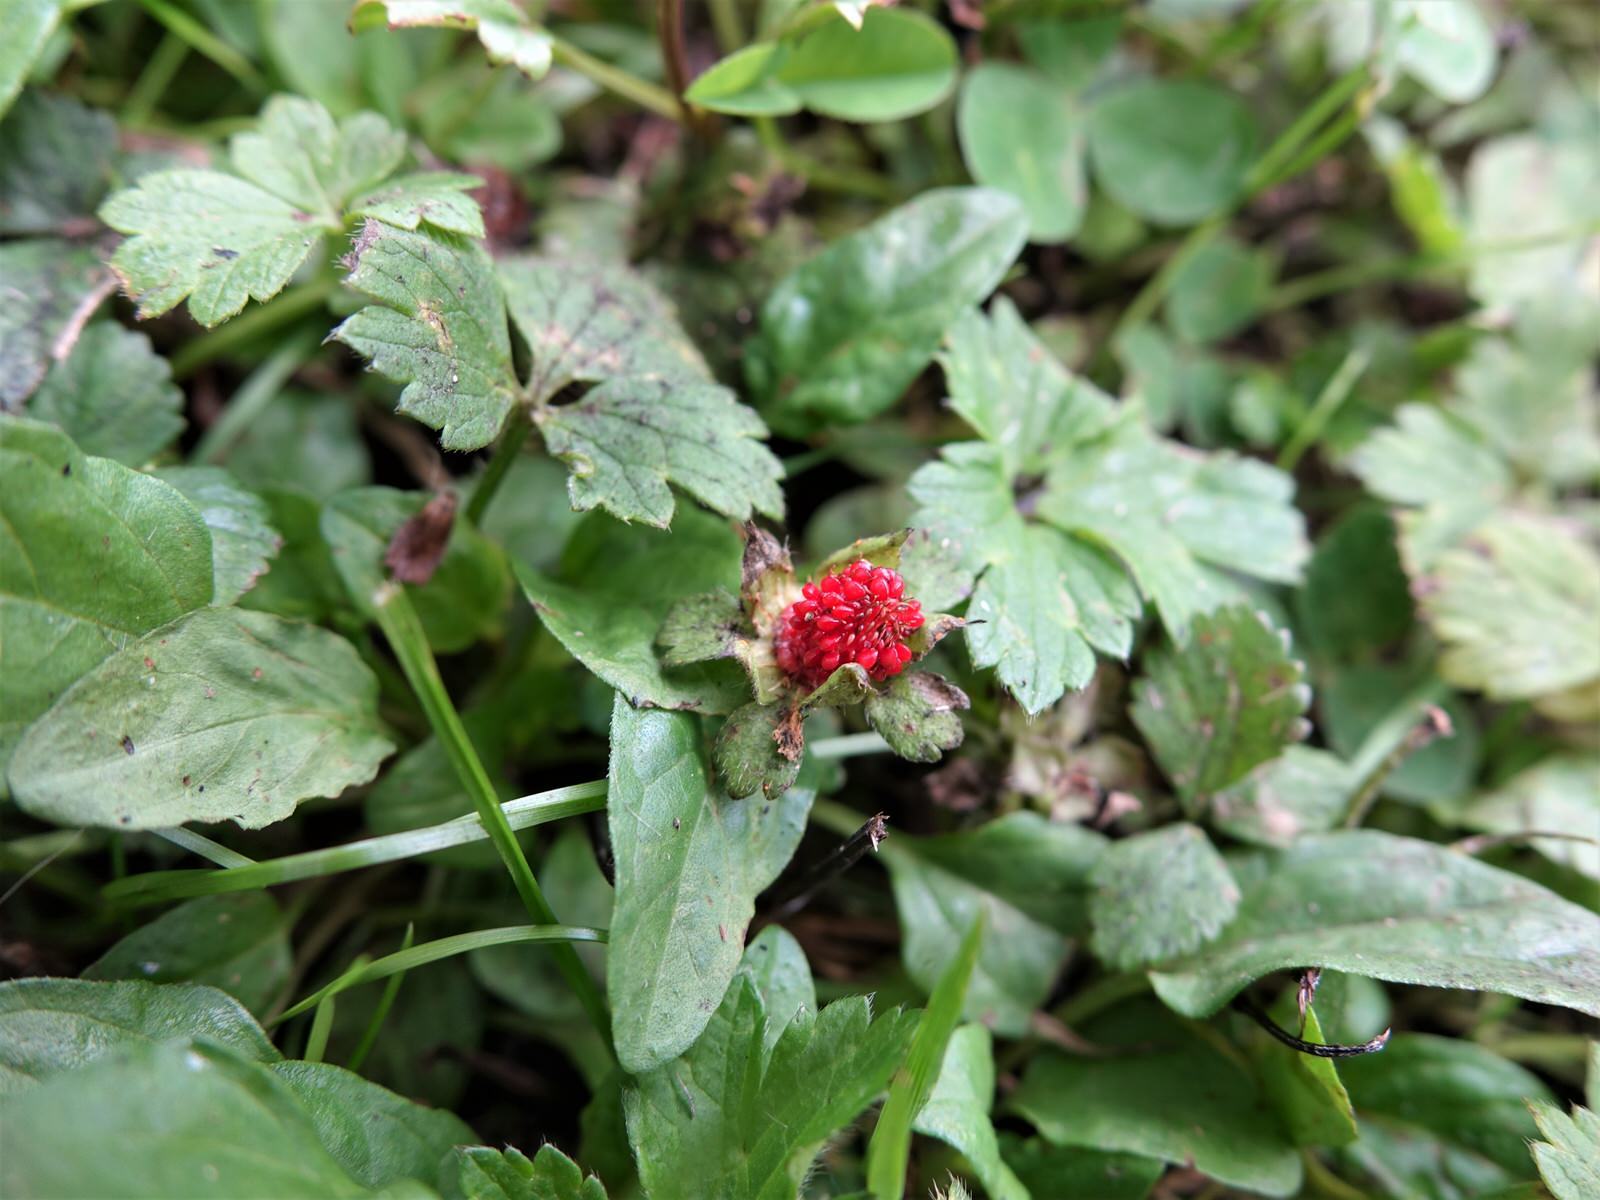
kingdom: Plantae
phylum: Tracheophyta
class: Magnoliopsida
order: Rosales
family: Rosaceae
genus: Potentilla
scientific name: Potentilla indica
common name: Yellow-flowered strawberry
